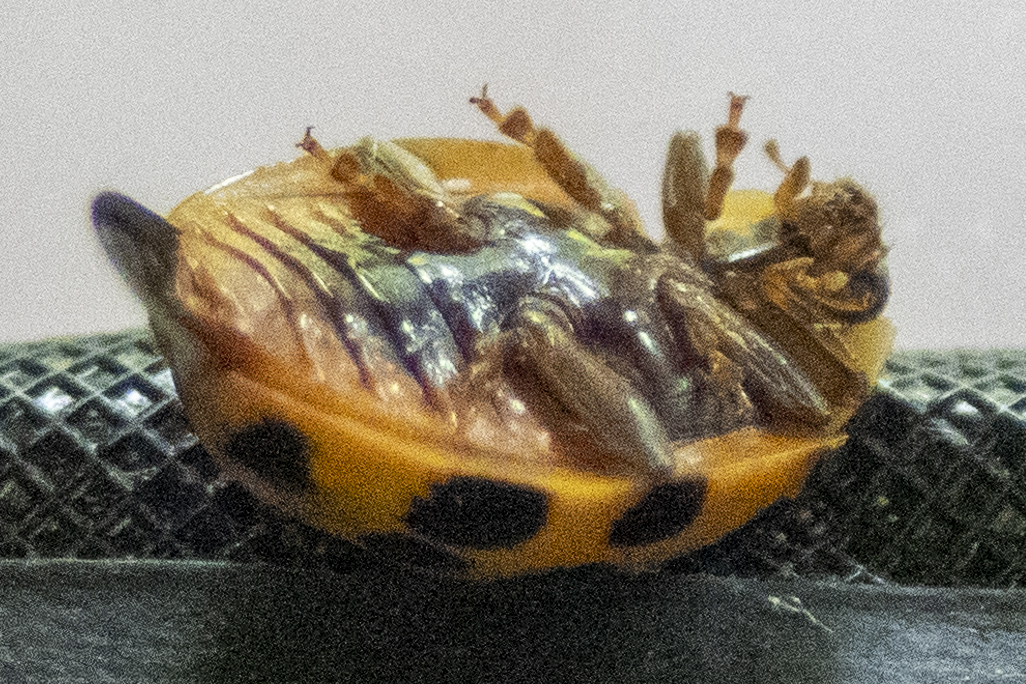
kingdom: Animalia
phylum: Arthropoda
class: Insecta
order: Coleoptera
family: Coccinellidae
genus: Harmonia
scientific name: Harmonia axyridis
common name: Harlequin ladybird
